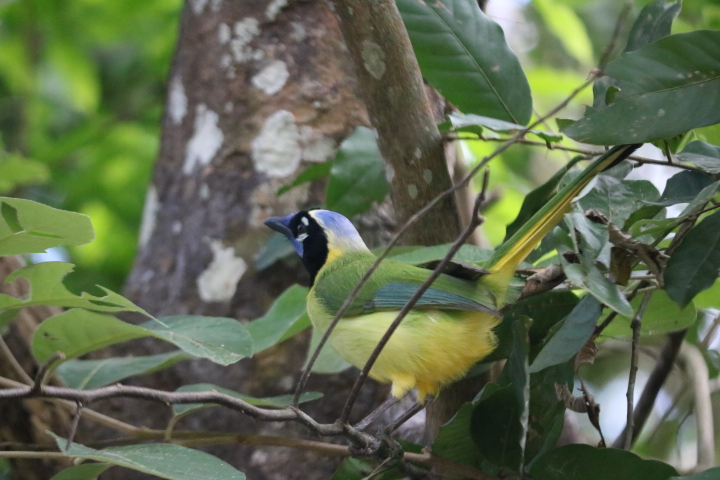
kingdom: Animalia
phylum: Chordata
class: Aves
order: Passeriformes
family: Corvidae
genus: Cyanocorax
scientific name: Cyanocorax yncas
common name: Green jay
